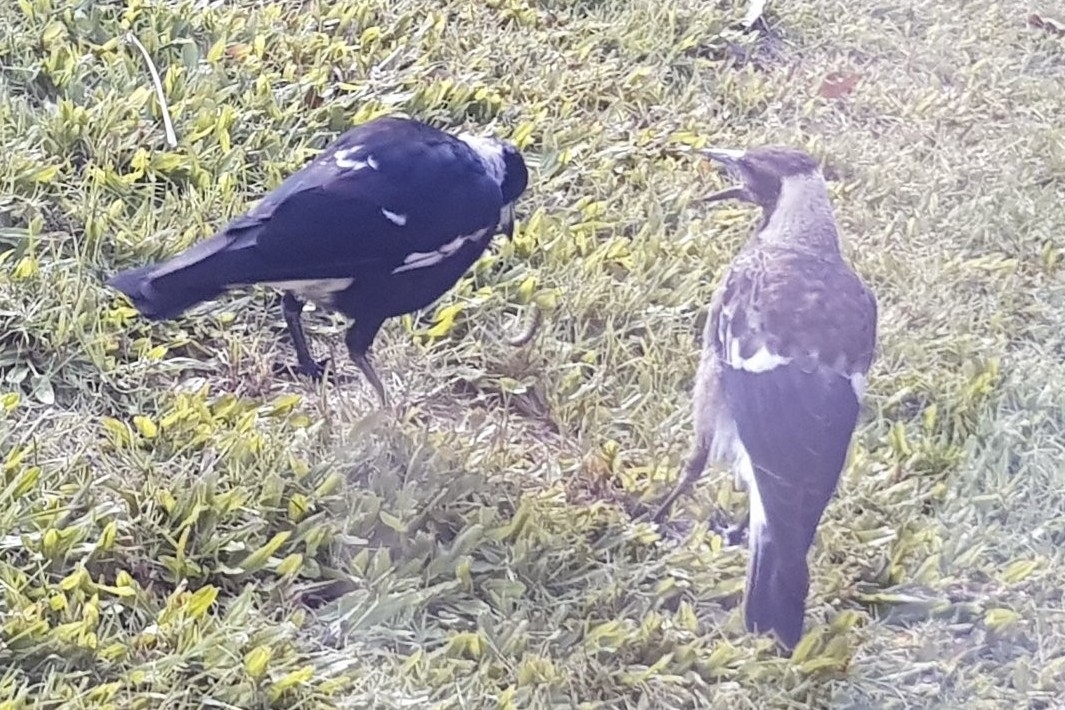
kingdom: Animalia
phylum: Chordata
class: Aves
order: Passeriformes
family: Cracticidae
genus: Gymnorhina
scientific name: Gymnorhina tibicen
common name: Australian magpie
